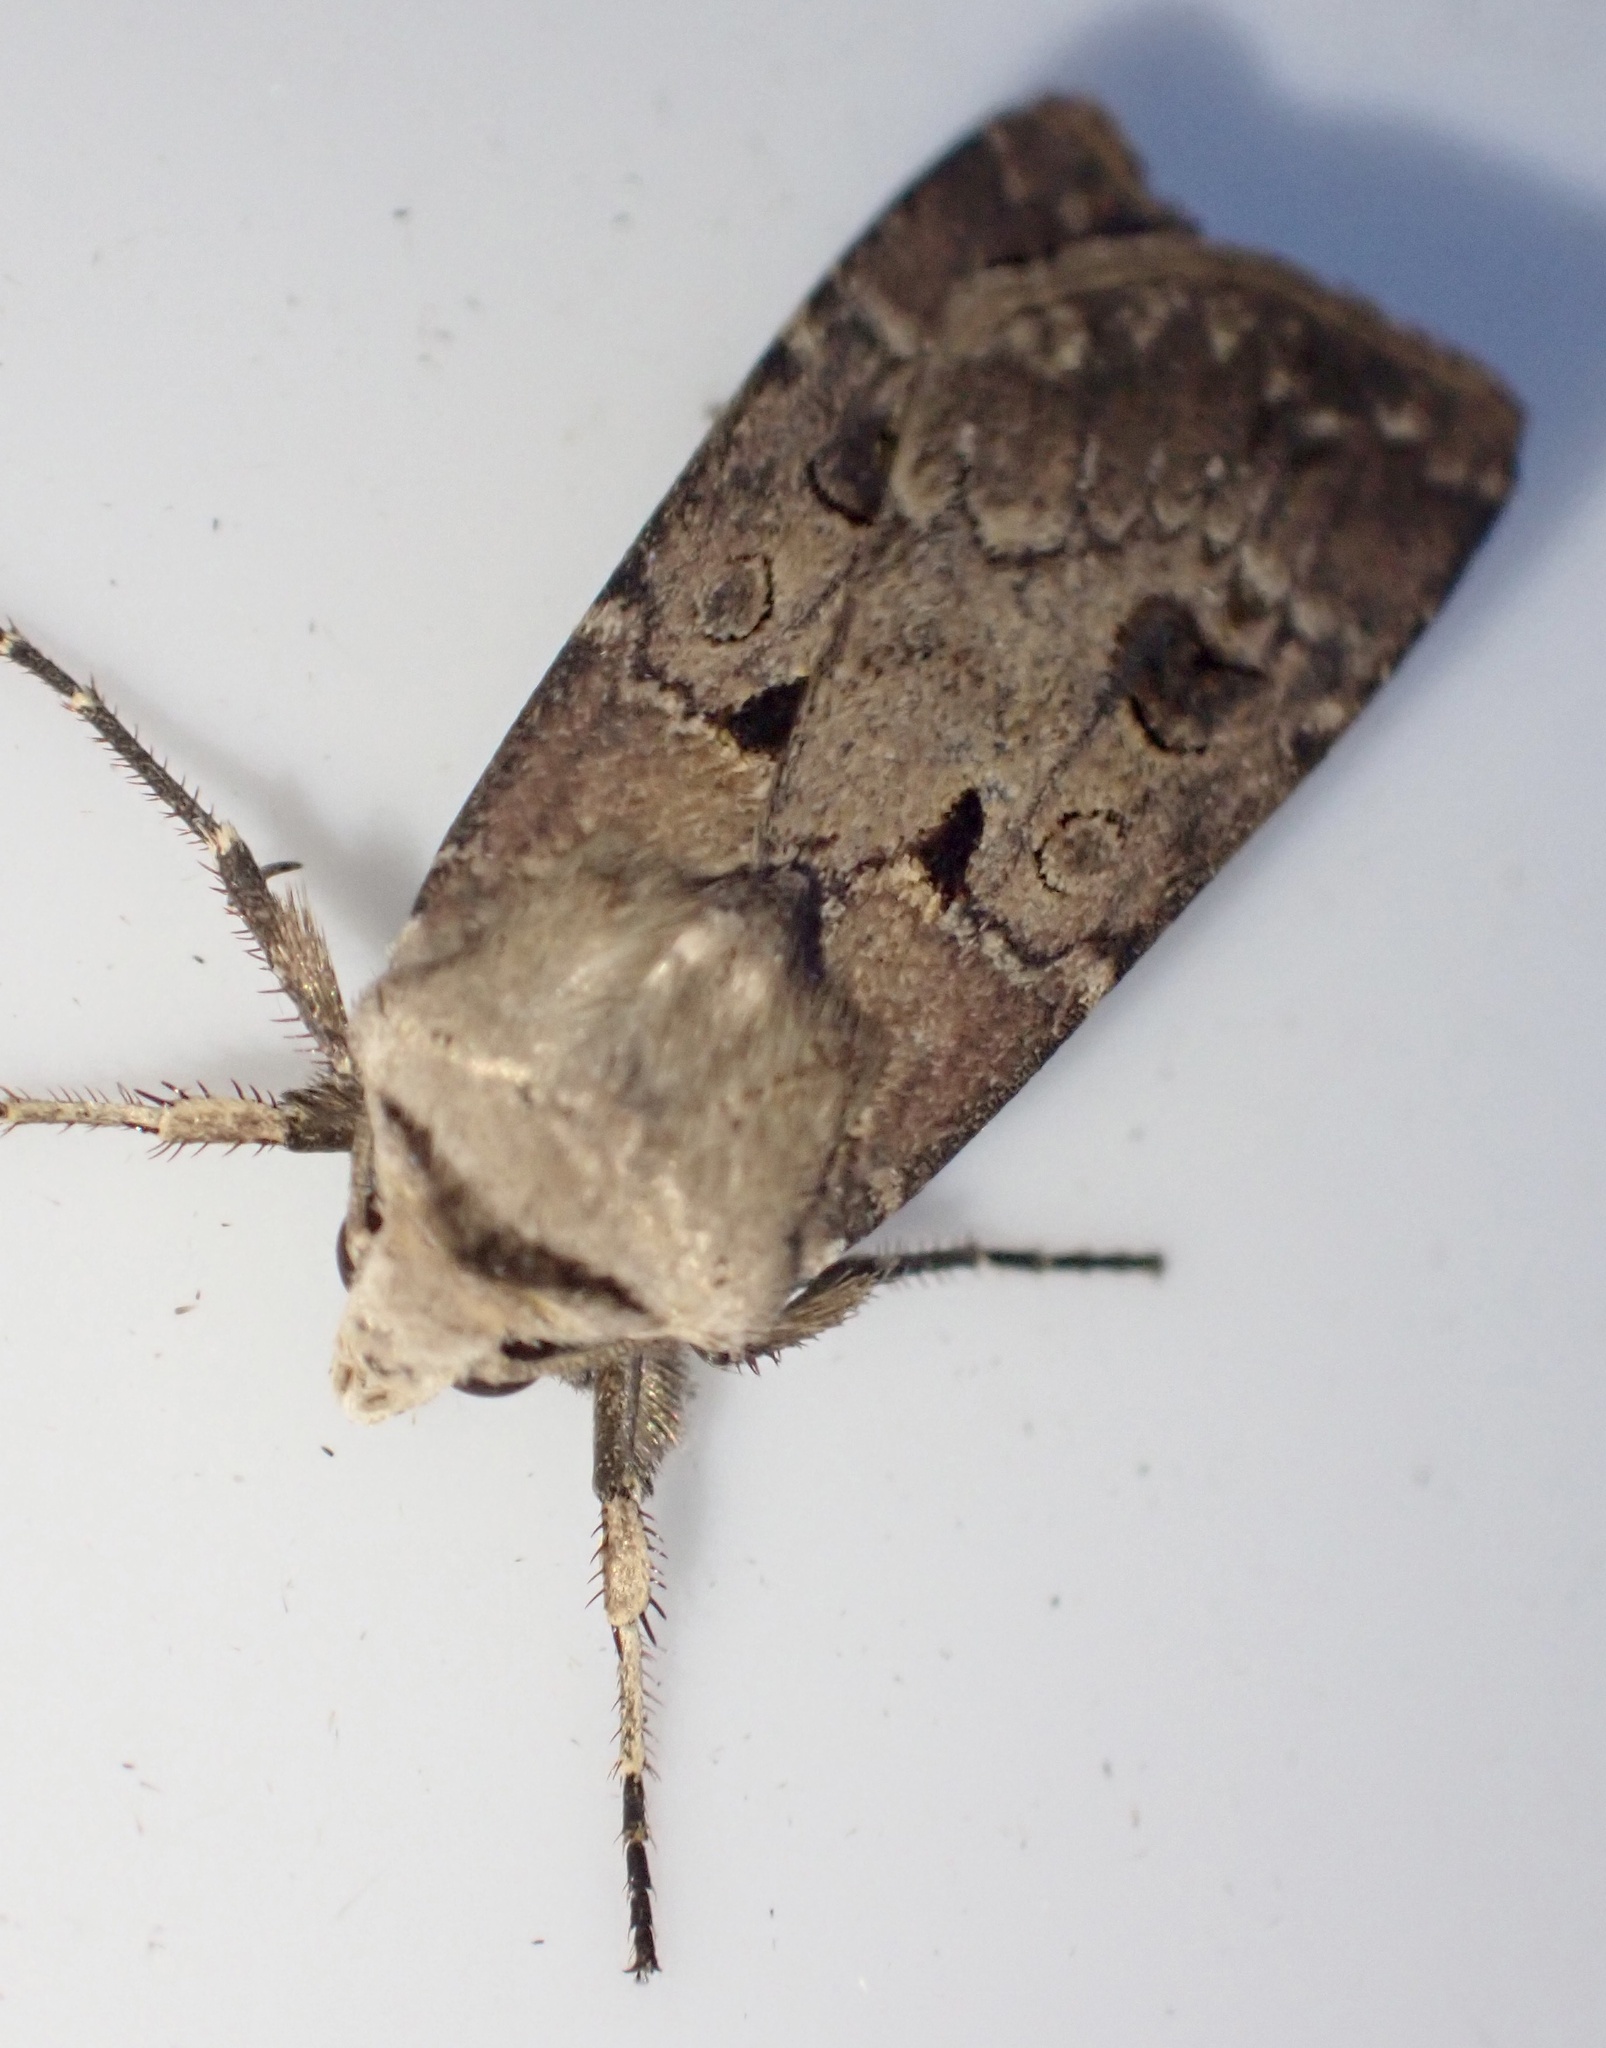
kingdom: Animalia
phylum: Arthropoda
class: Insecta
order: Lepidoptera
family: Noctuidae
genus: Agrotis
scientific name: Agrotis exclamationis
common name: Heart and dart
